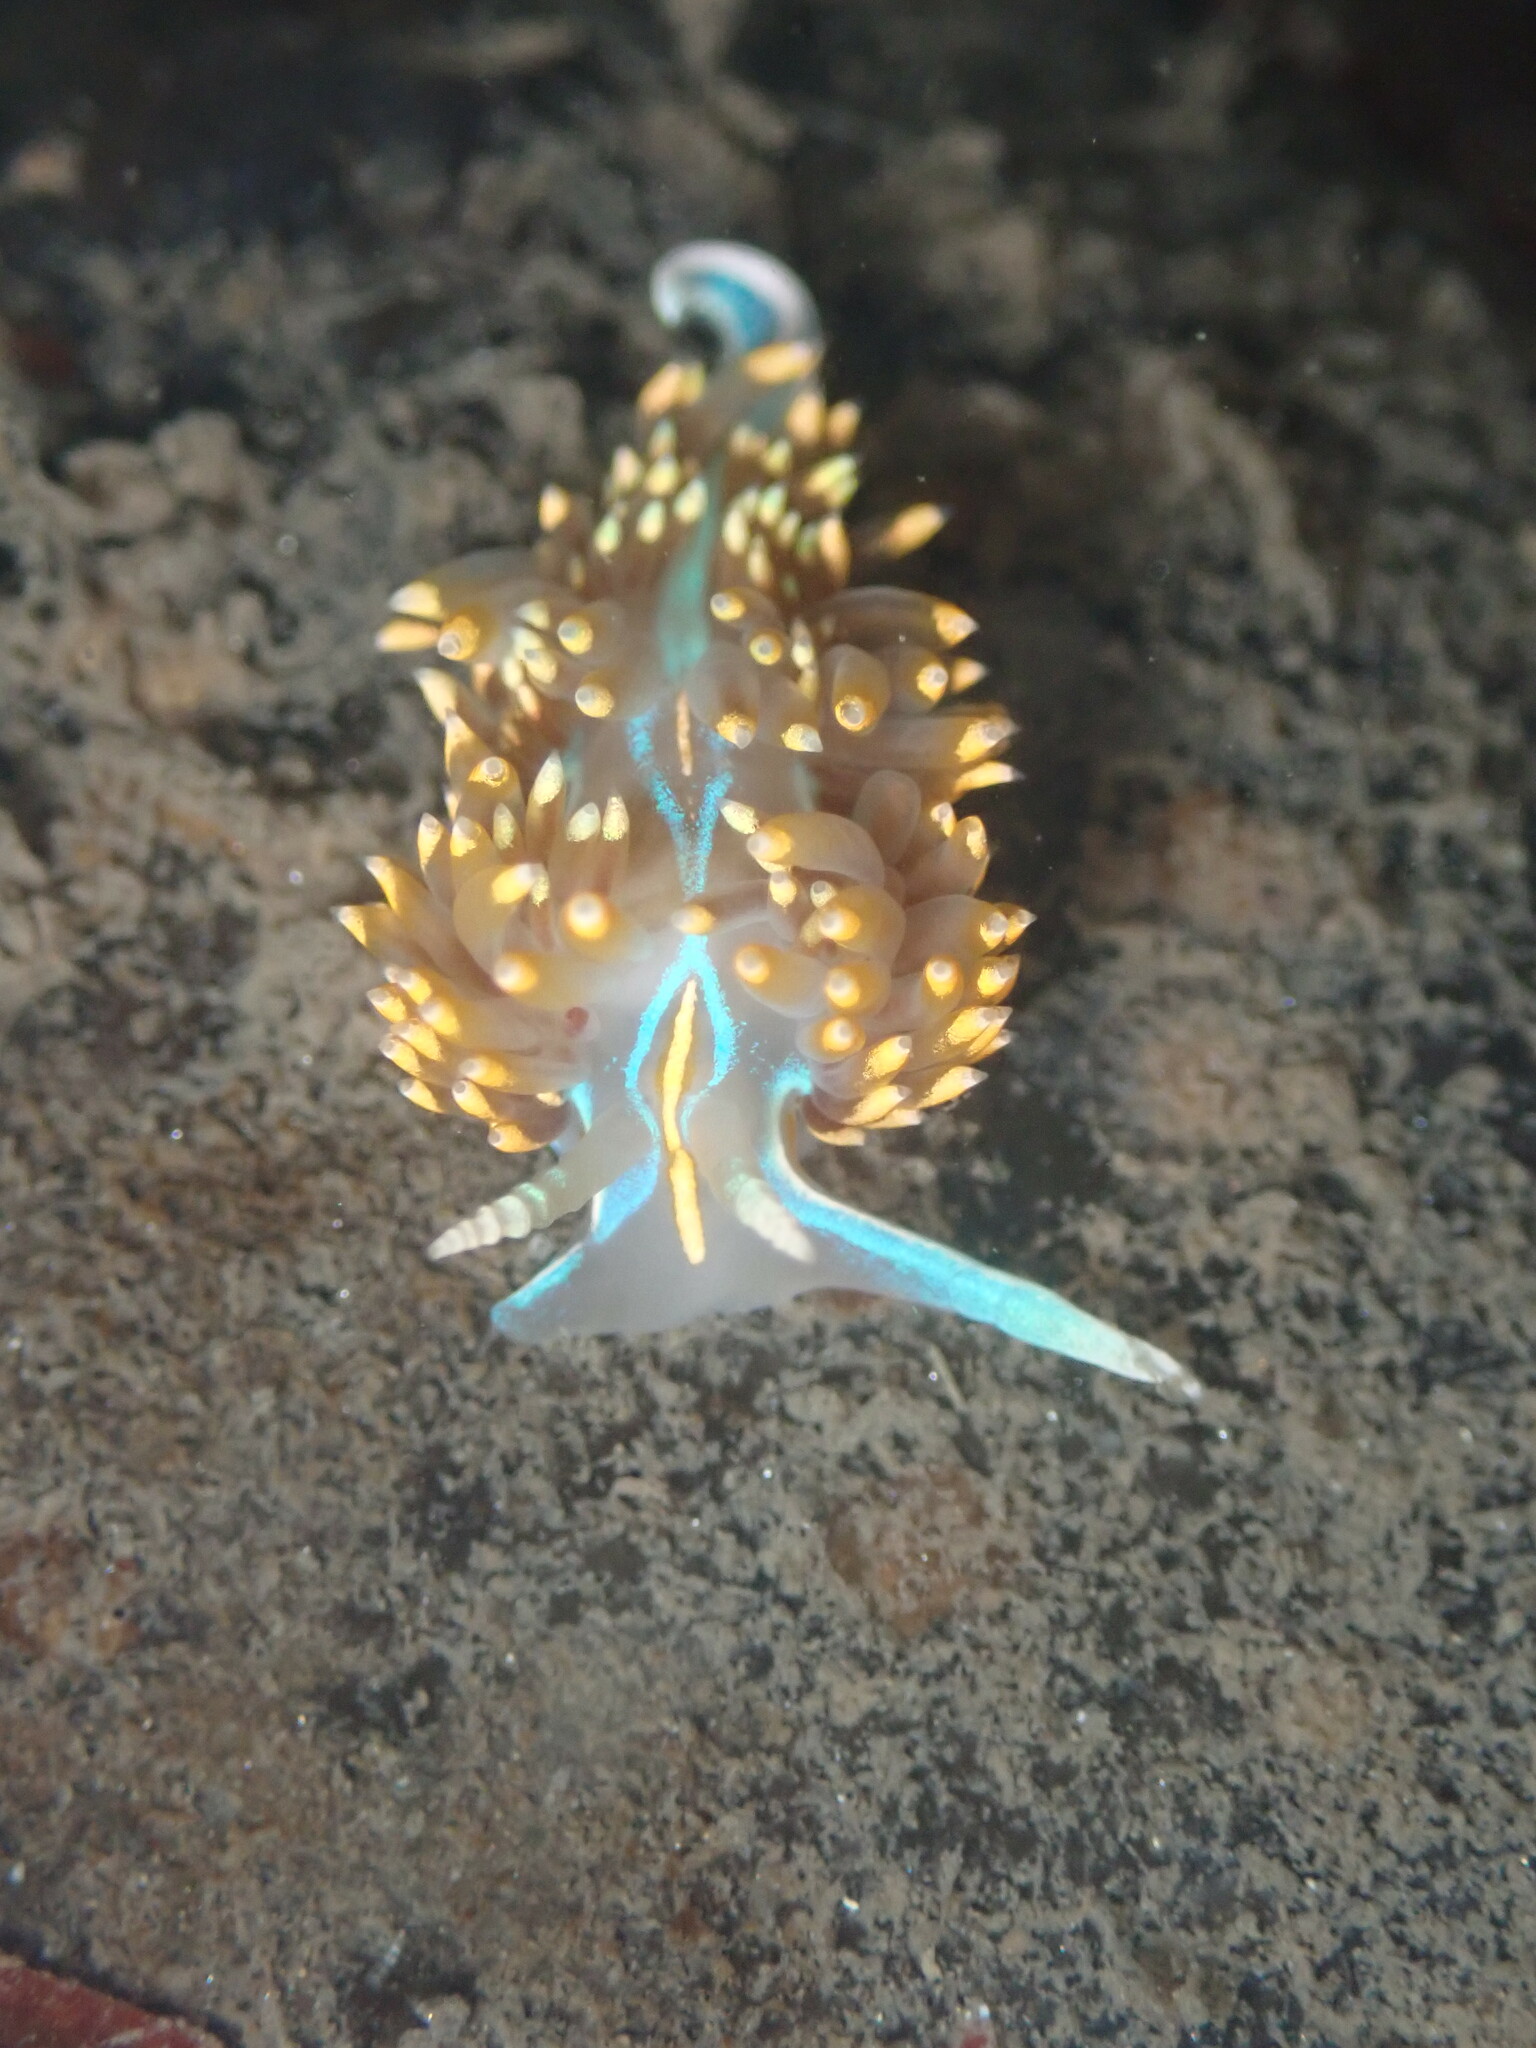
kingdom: Animalia
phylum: Mollusca
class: Gastropoda
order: Nudibranchia
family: Myrrhinidae
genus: Hermissenda
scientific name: Hermissenda opalescens
